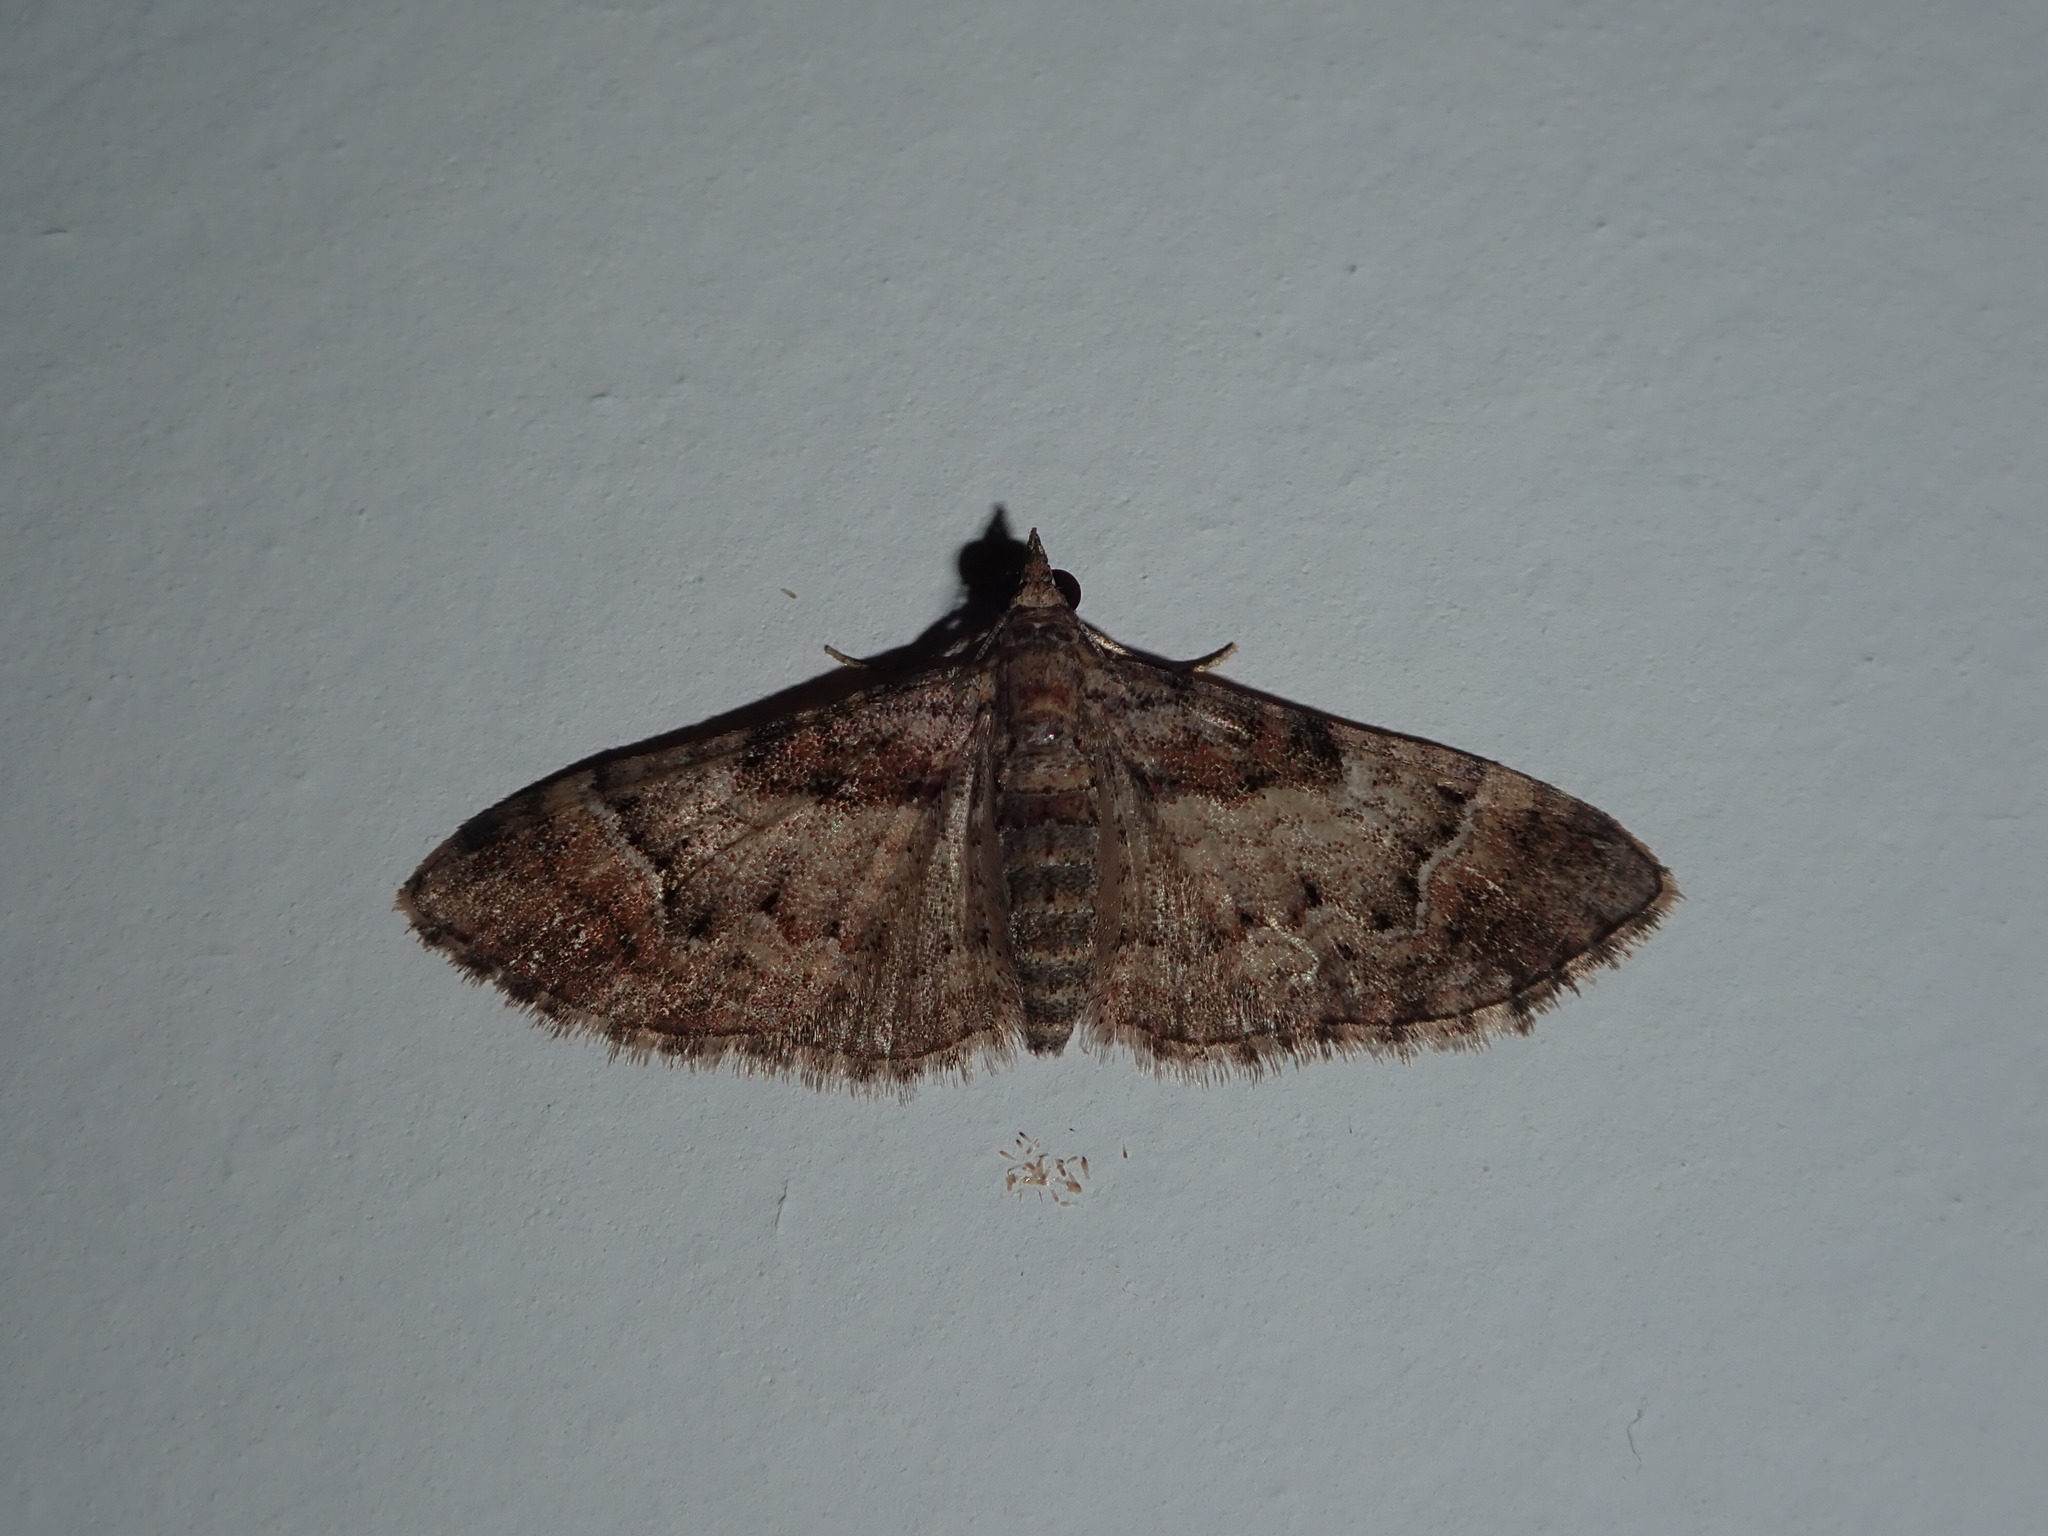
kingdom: Animalia
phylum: Arthropoda
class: Insecta
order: Lepidoptera
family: Geometridae
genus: Mnesiloba
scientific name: Mnesiloba eupitheciata
